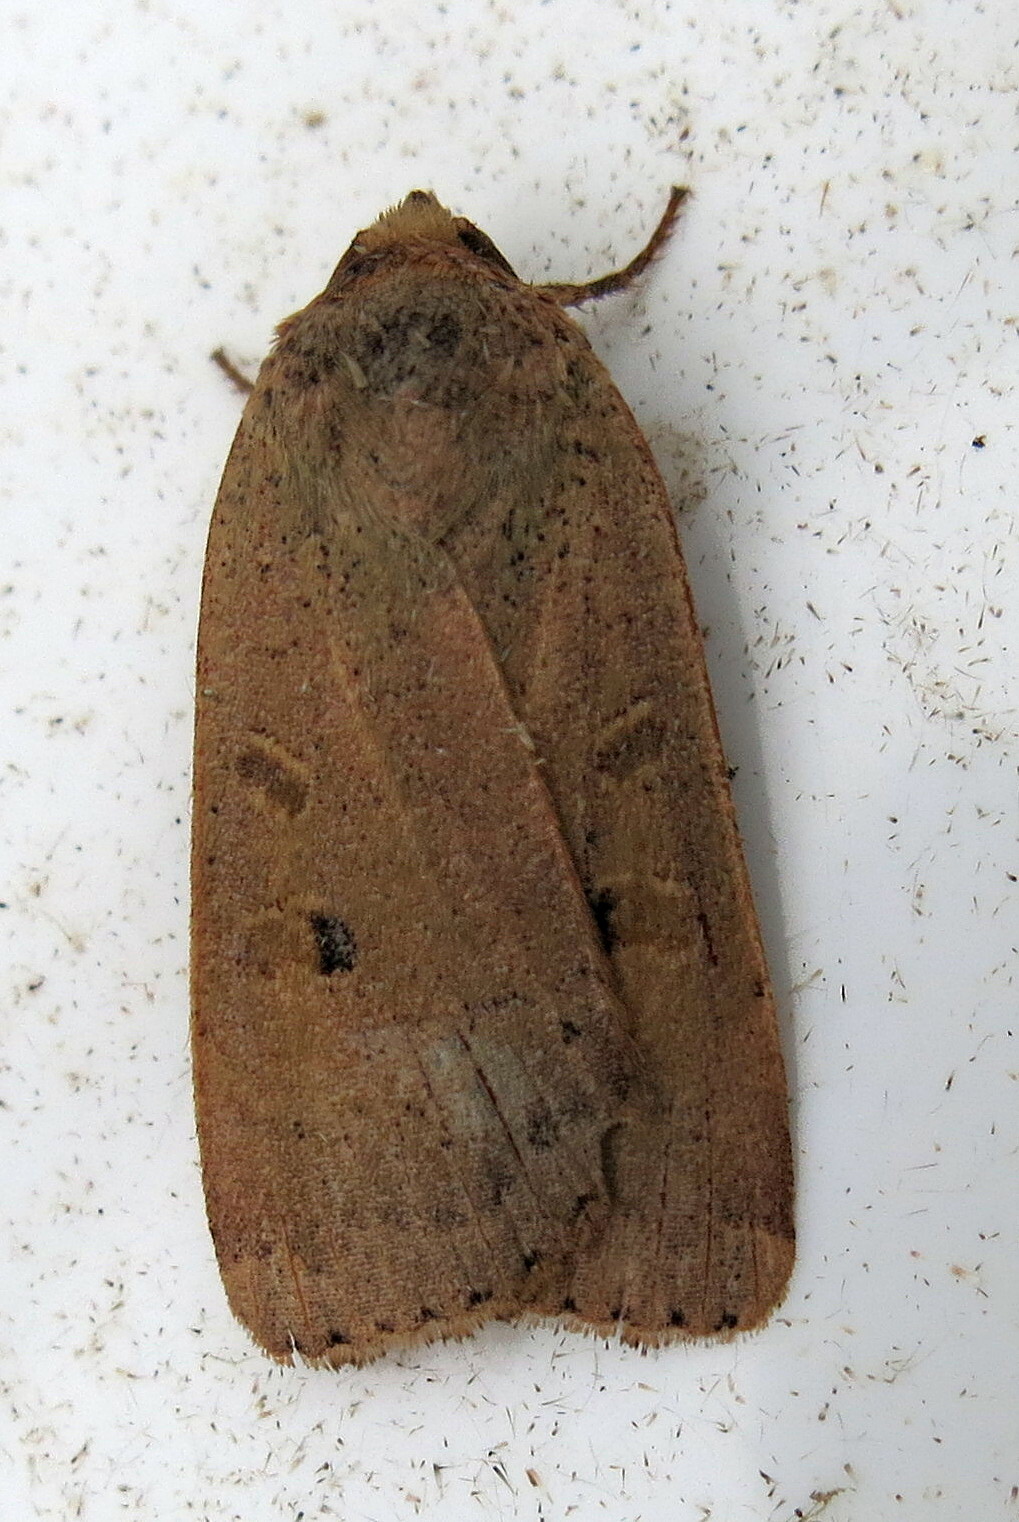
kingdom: Animalia
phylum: Arthropoda
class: Insecta
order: Lepidoptera
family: Noctuidae
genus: Noctua
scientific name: Noctua comes
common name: Lesser yellow underwing
